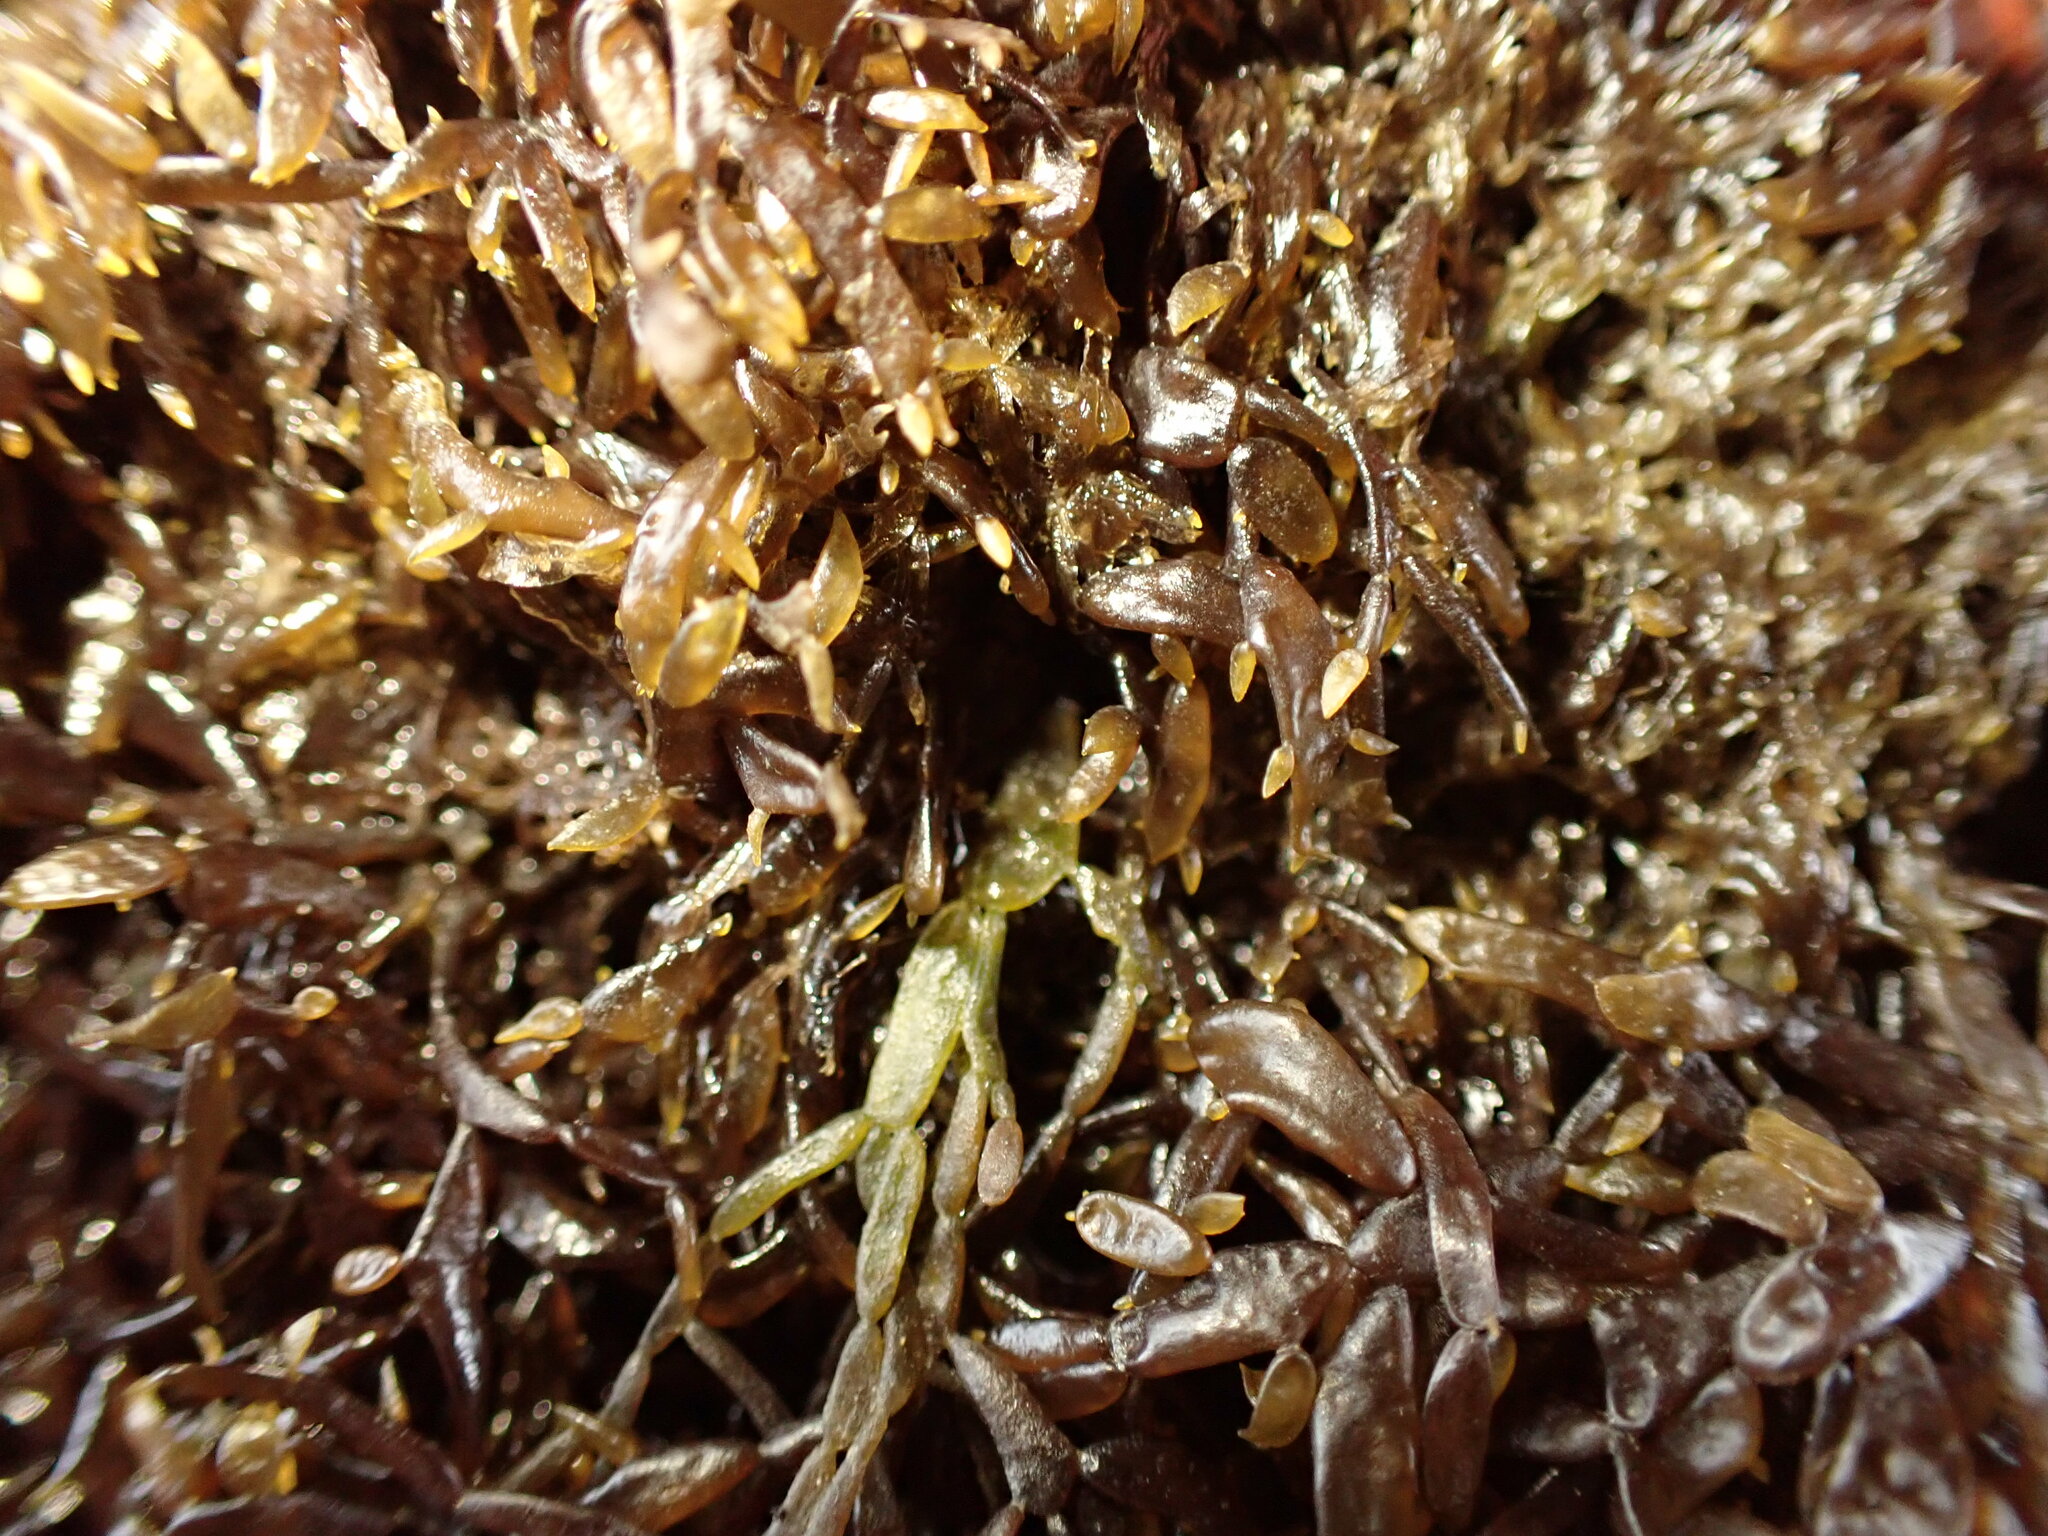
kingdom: Plantae
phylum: Rhodophyta
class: Florideophyceae
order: Gigartinales
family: Caulacanthaceae
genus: Catenella
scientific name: Catenella nipae
